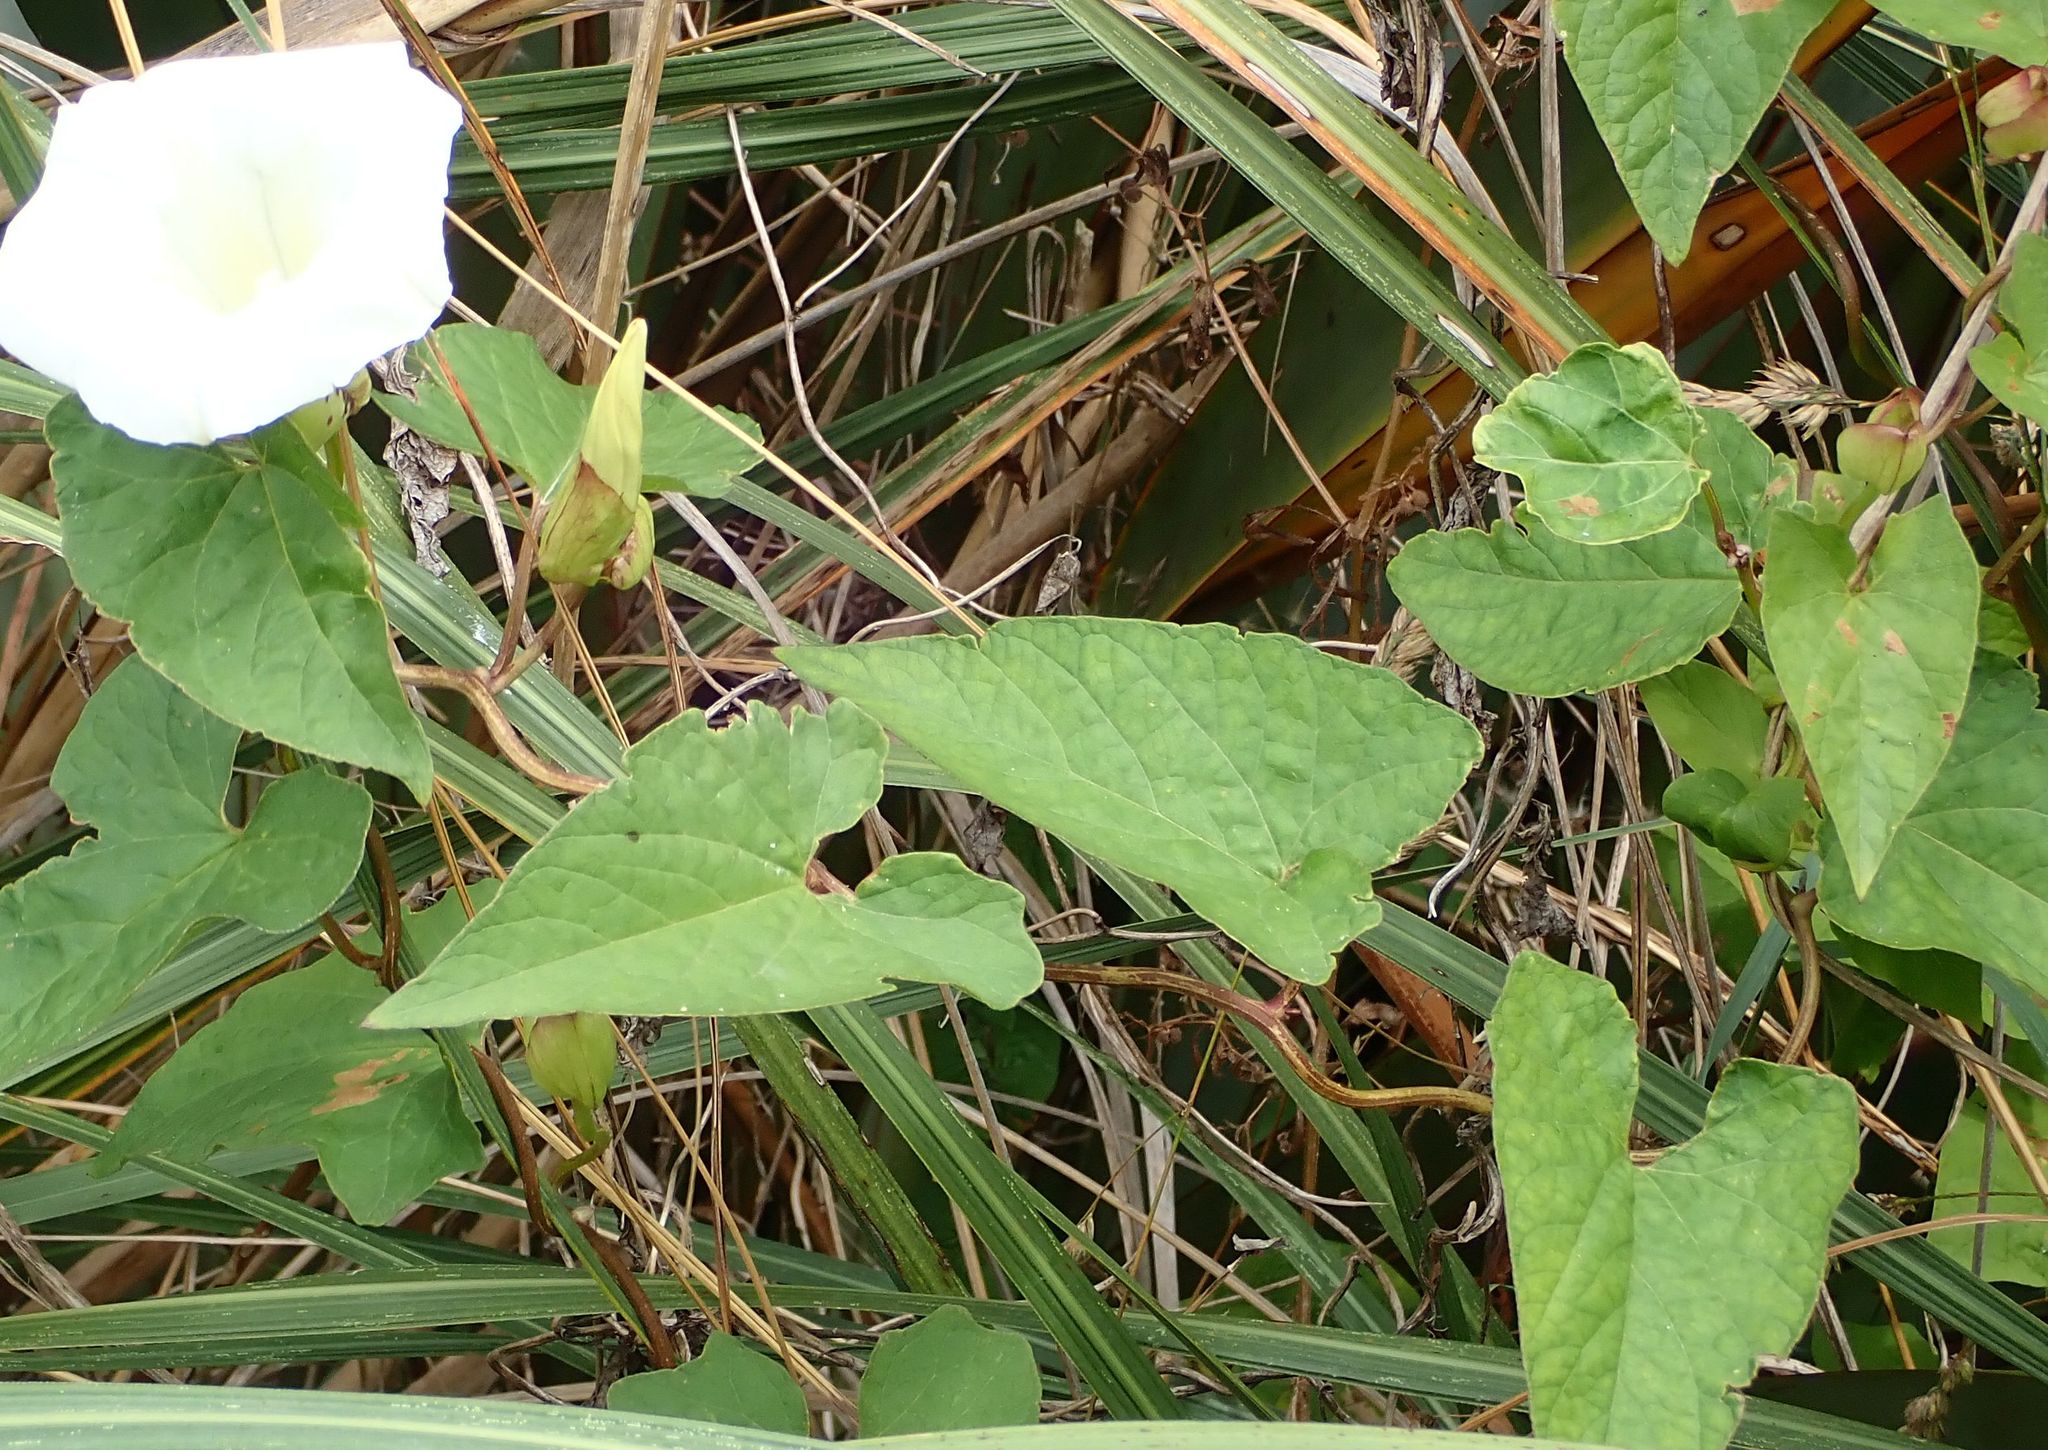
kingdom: Plantae
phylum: Tracheophyta
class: Magnoliopsida
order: Solanales
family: Convolvulaceae
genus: Calystegia
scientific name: Calystegia silvatica
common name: Large bindweed
